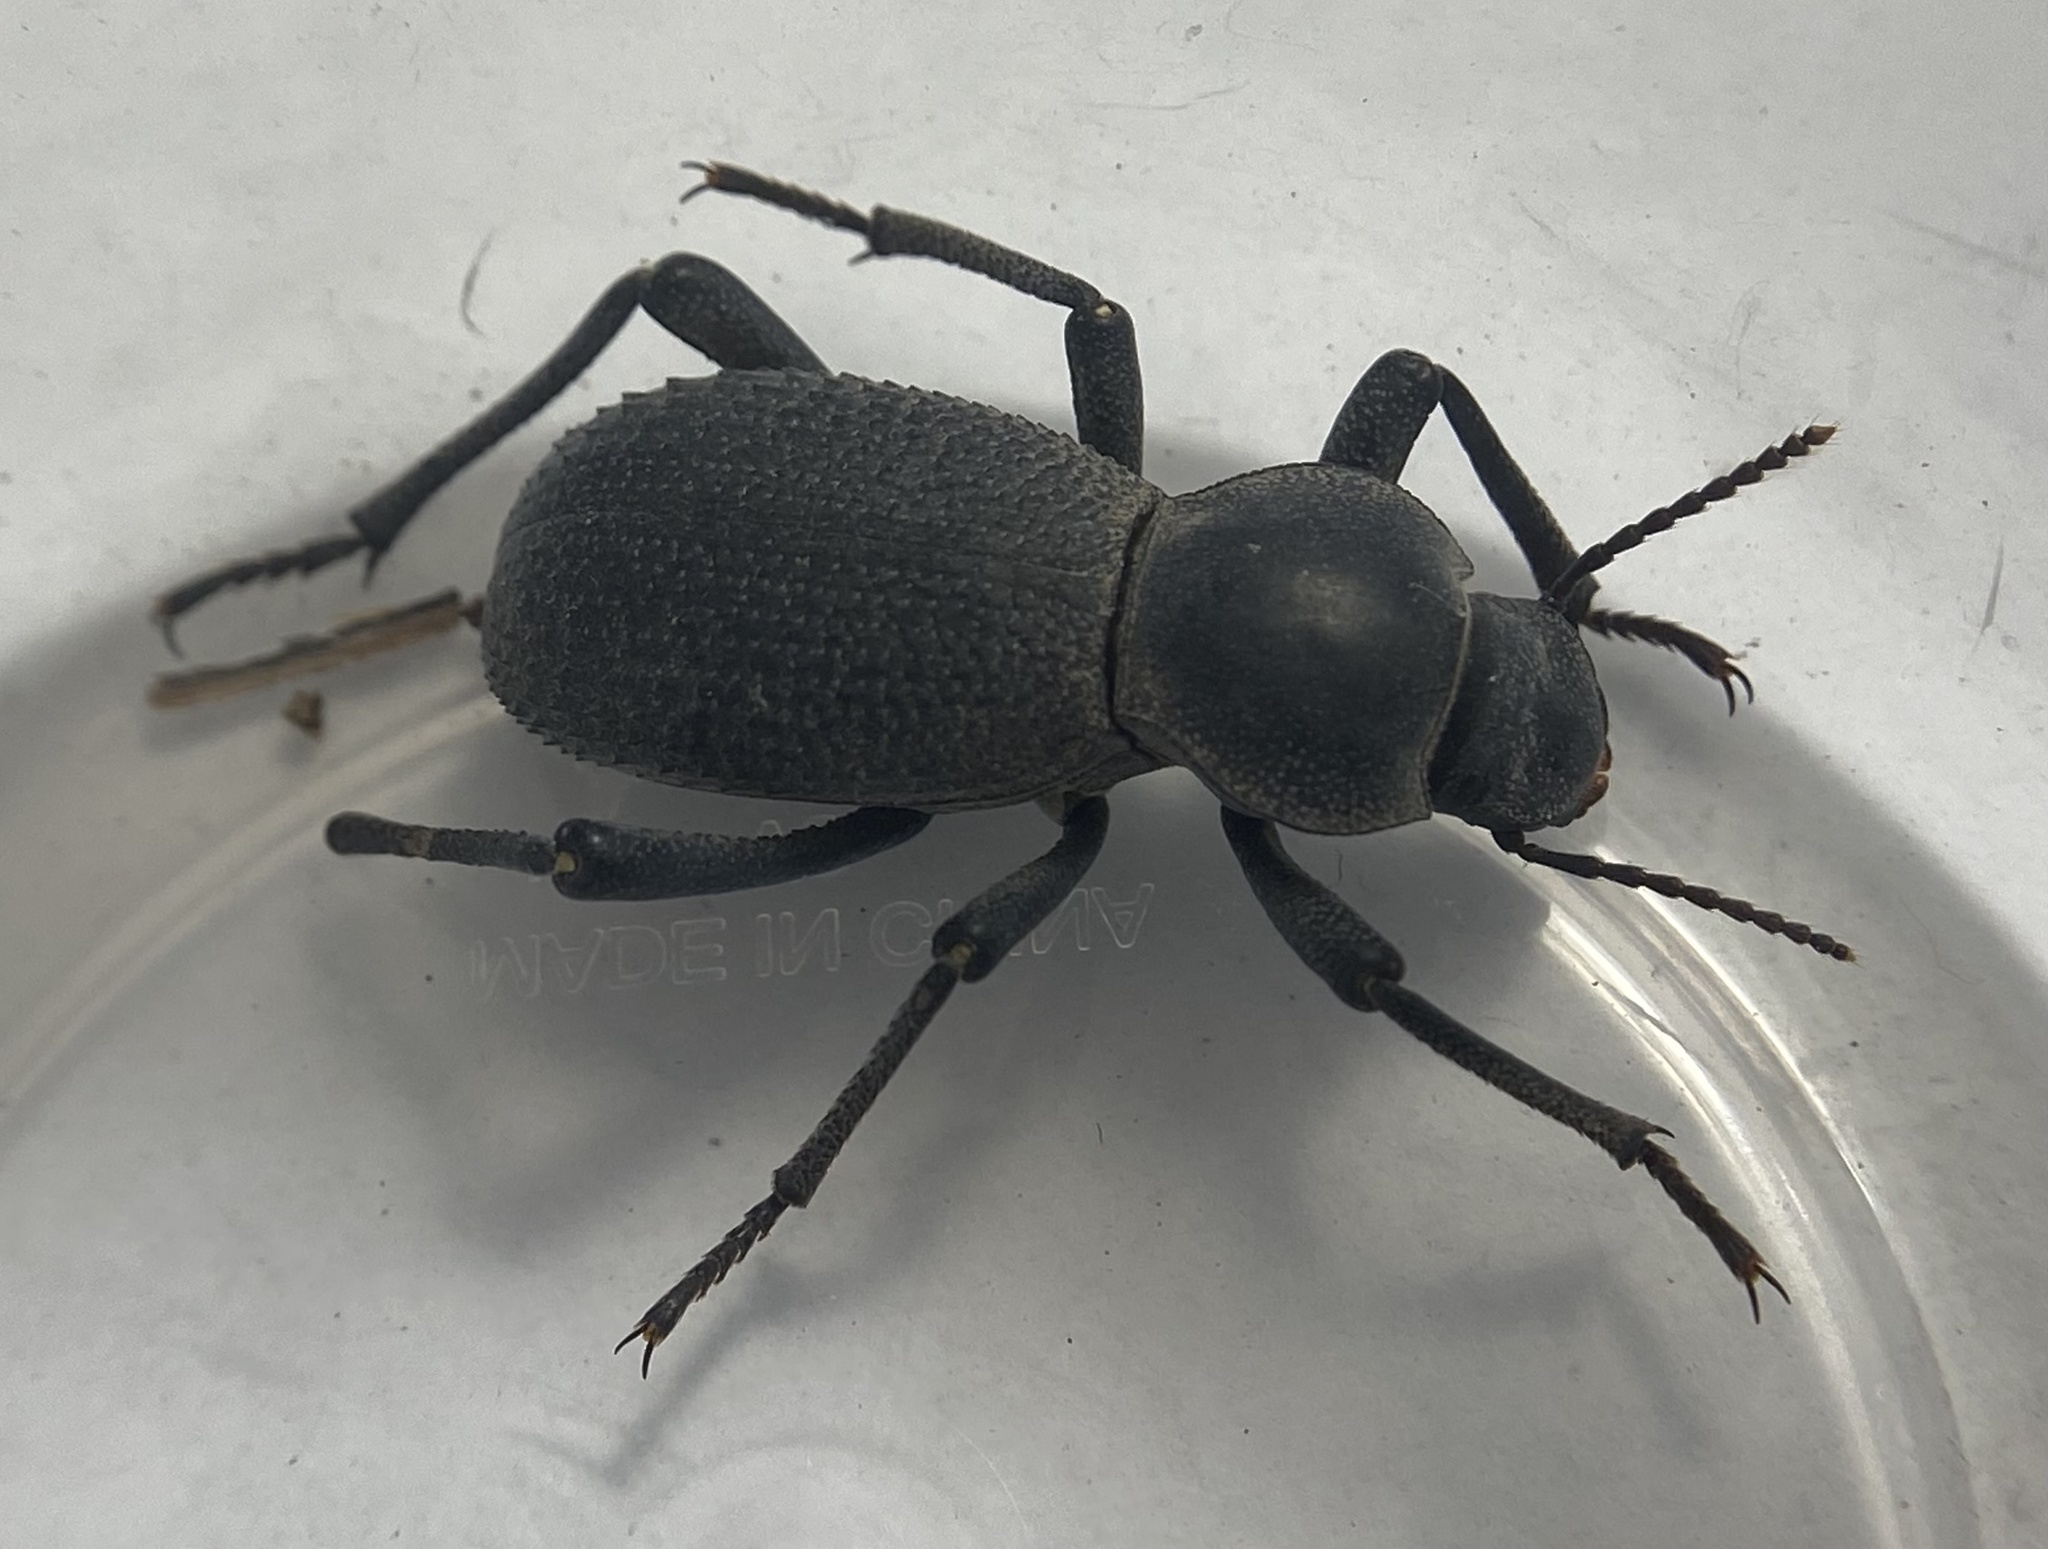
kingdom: Animalia
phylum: Arthropoda
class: Insecta
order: Coleoptera
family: Tenebrionidae
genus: Cryptoglossa
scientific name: Cryptoglossa muricata
